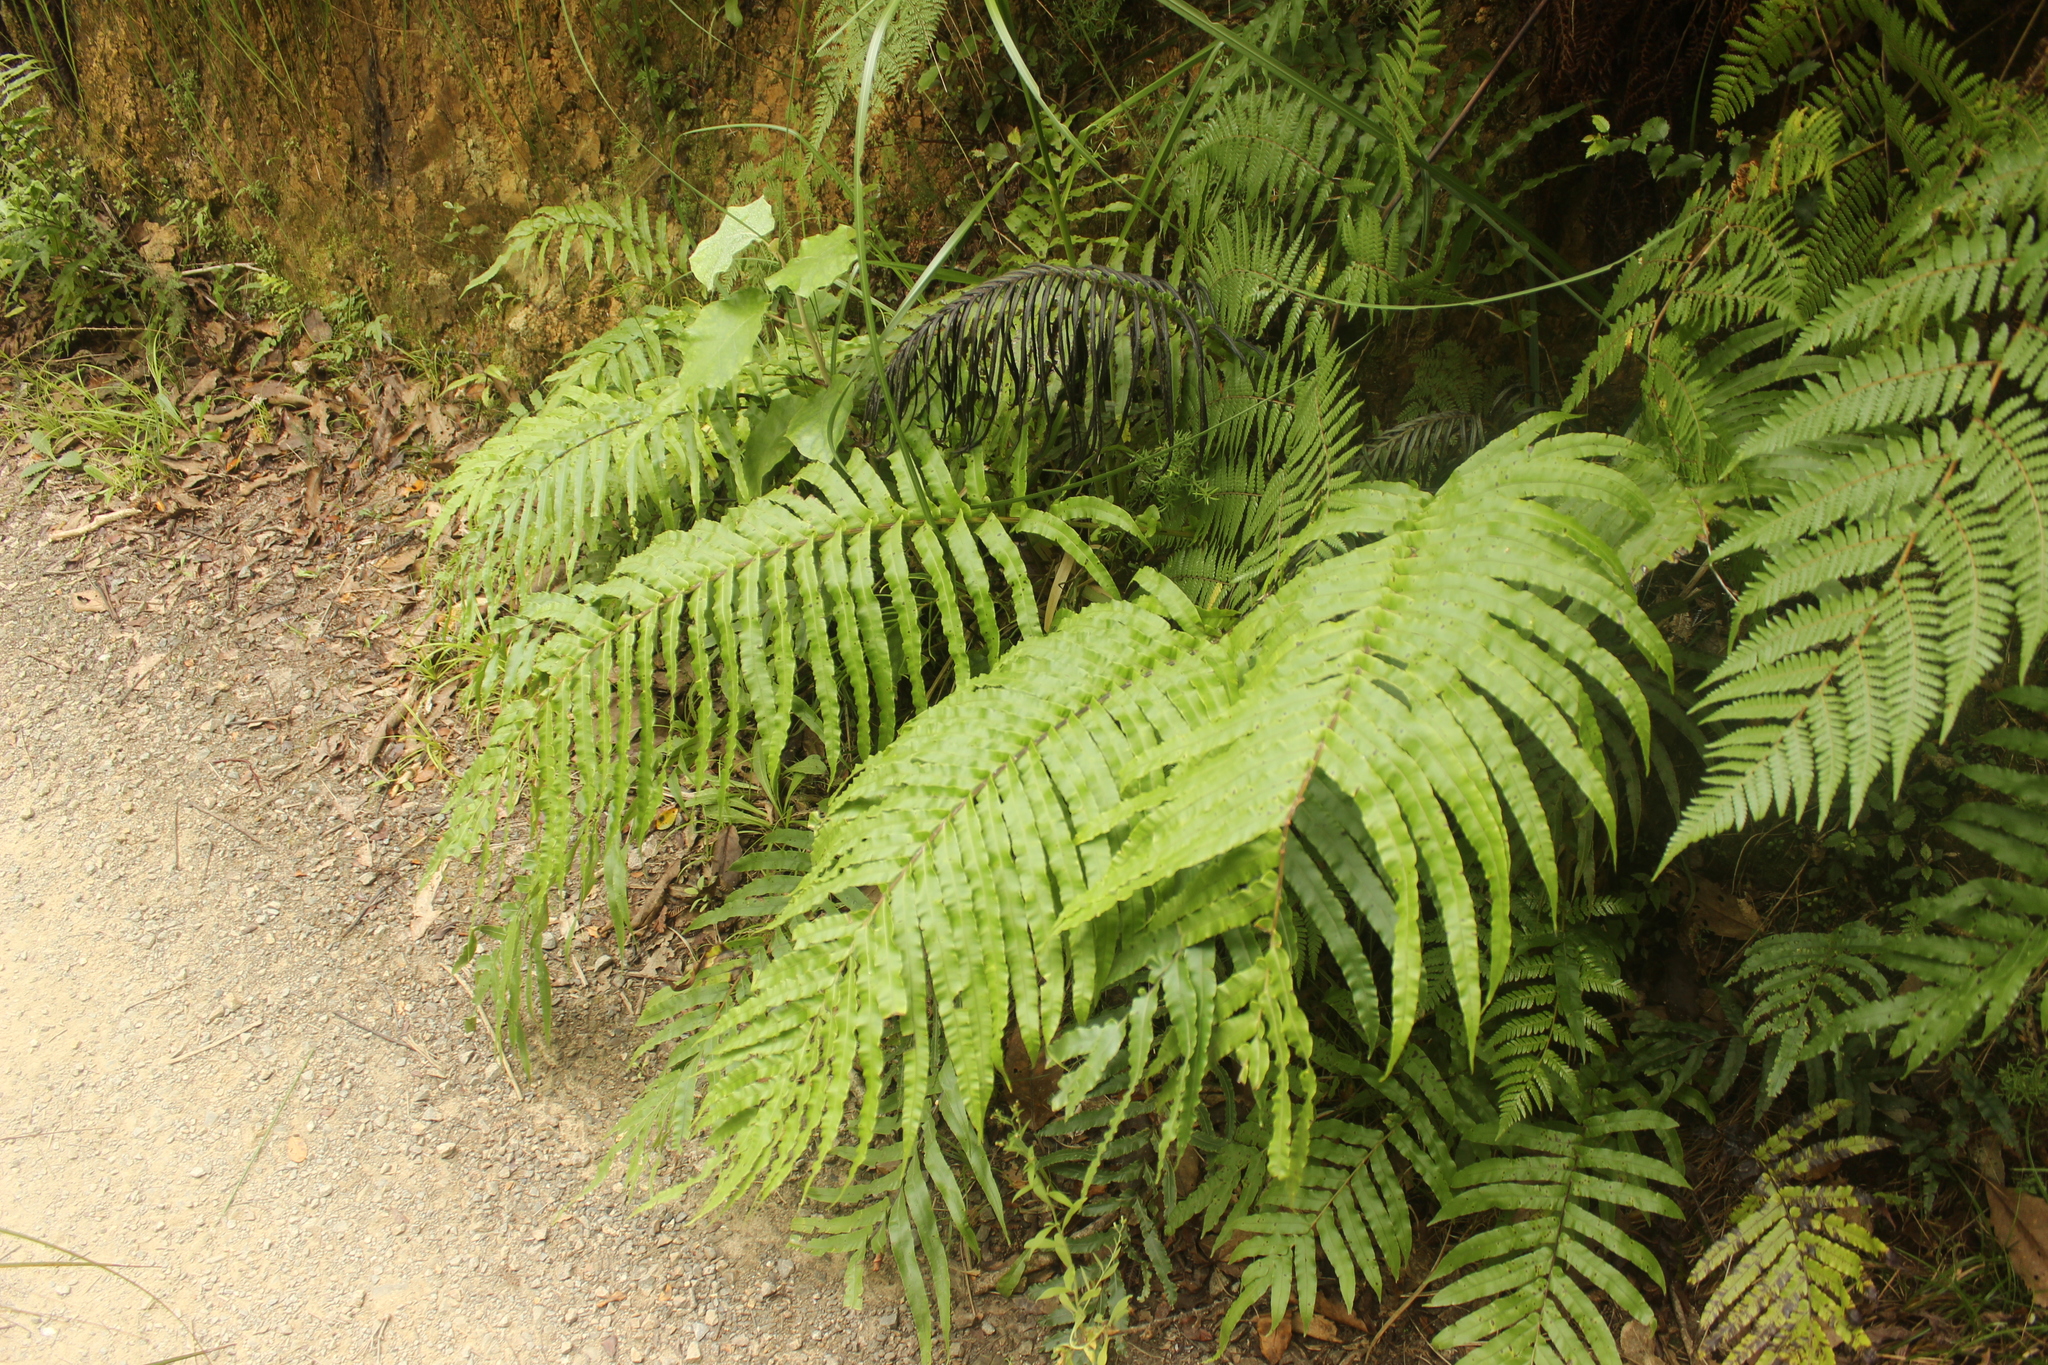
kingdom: Plantae
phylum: Tracheophyta
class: Polypodiopsida
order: Polypodiales
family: Blechnaceae
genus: Parablechnum
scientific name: Parablechnum novae-zelandiae
